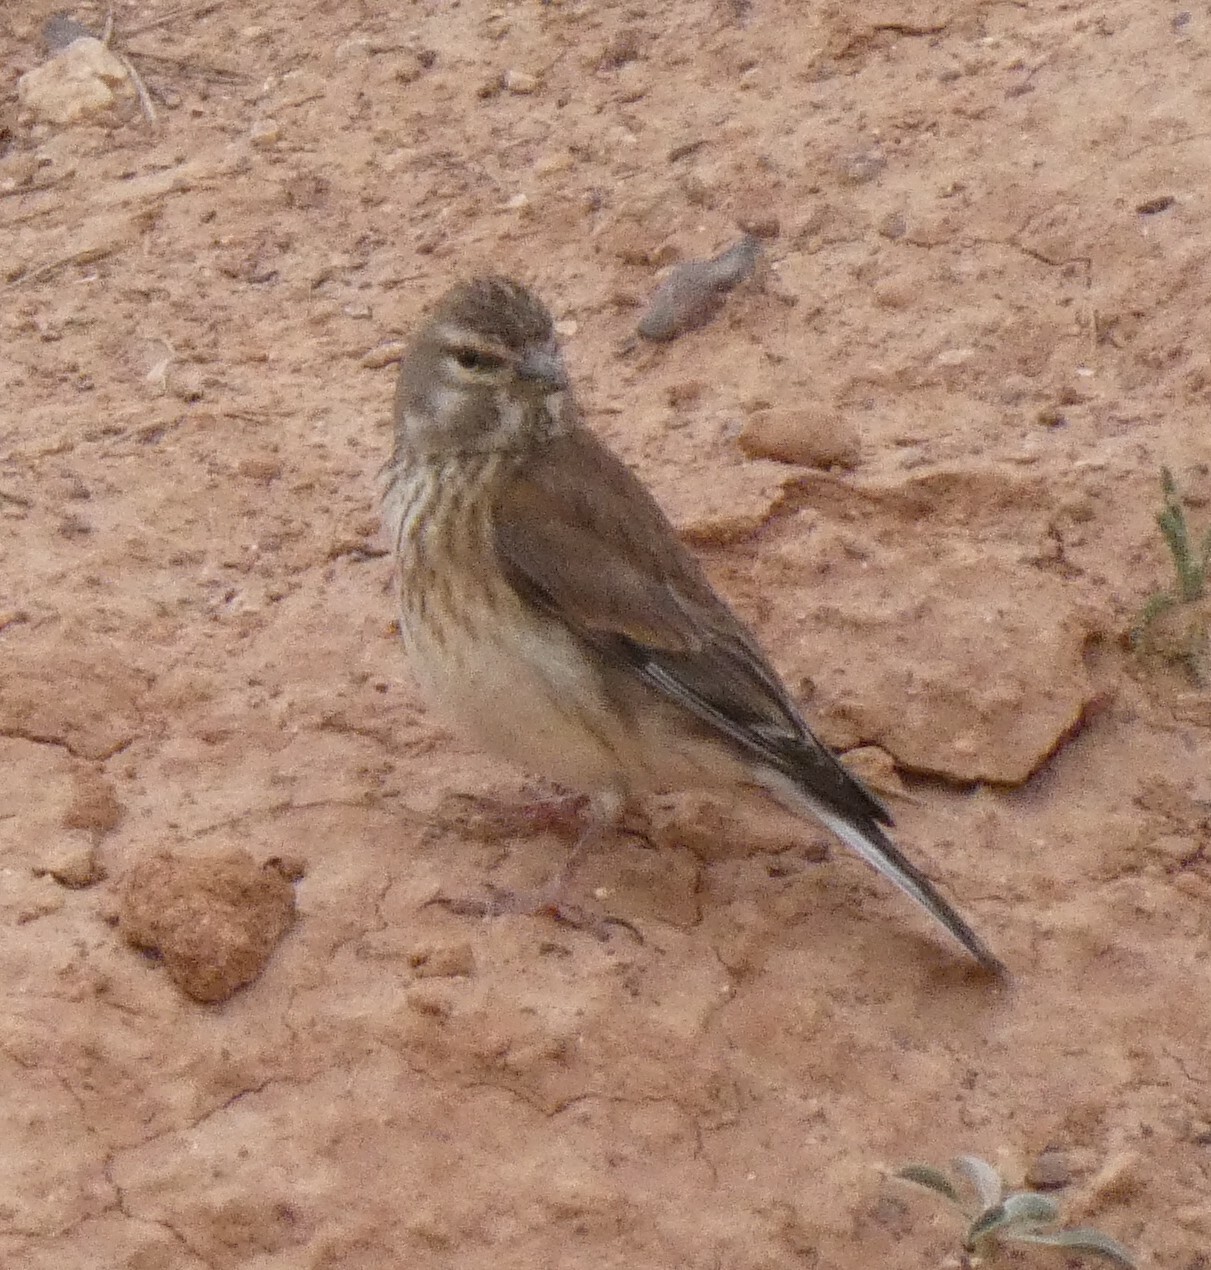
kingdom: Animalia
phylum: Chordata
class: Aves
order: Passeriformes
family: Fringillidae
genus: Linaria
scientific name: Linaria cannabina
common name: Common linnet
